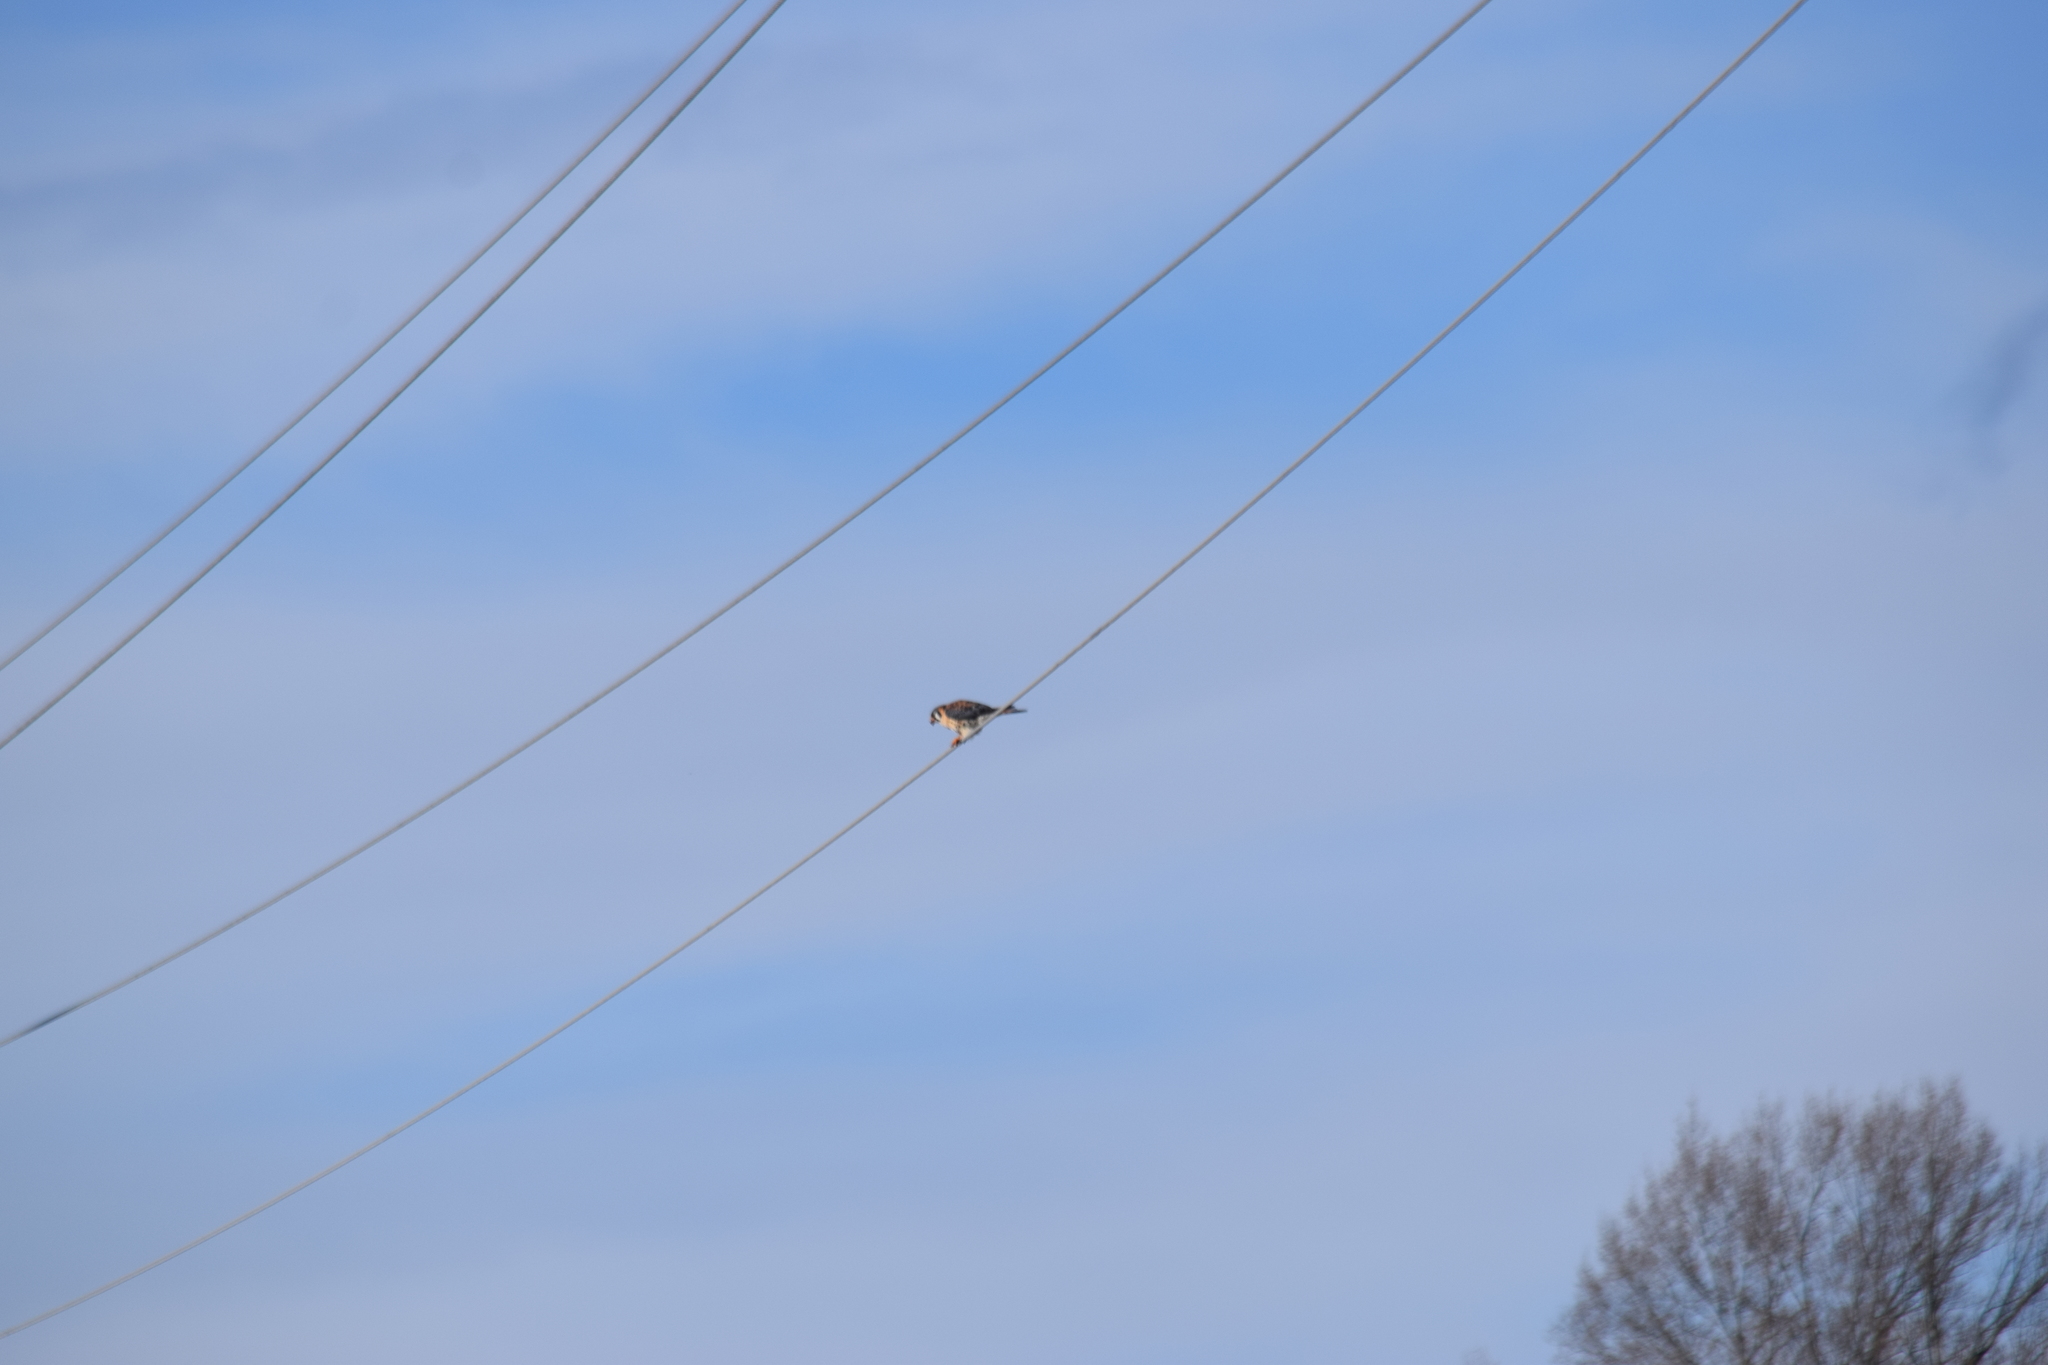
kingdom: Animalia
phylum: Chordata
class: Aves
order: Falconiformes
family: Falconidae
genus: Falco
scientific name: Falco sparverius
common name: American kestrel
